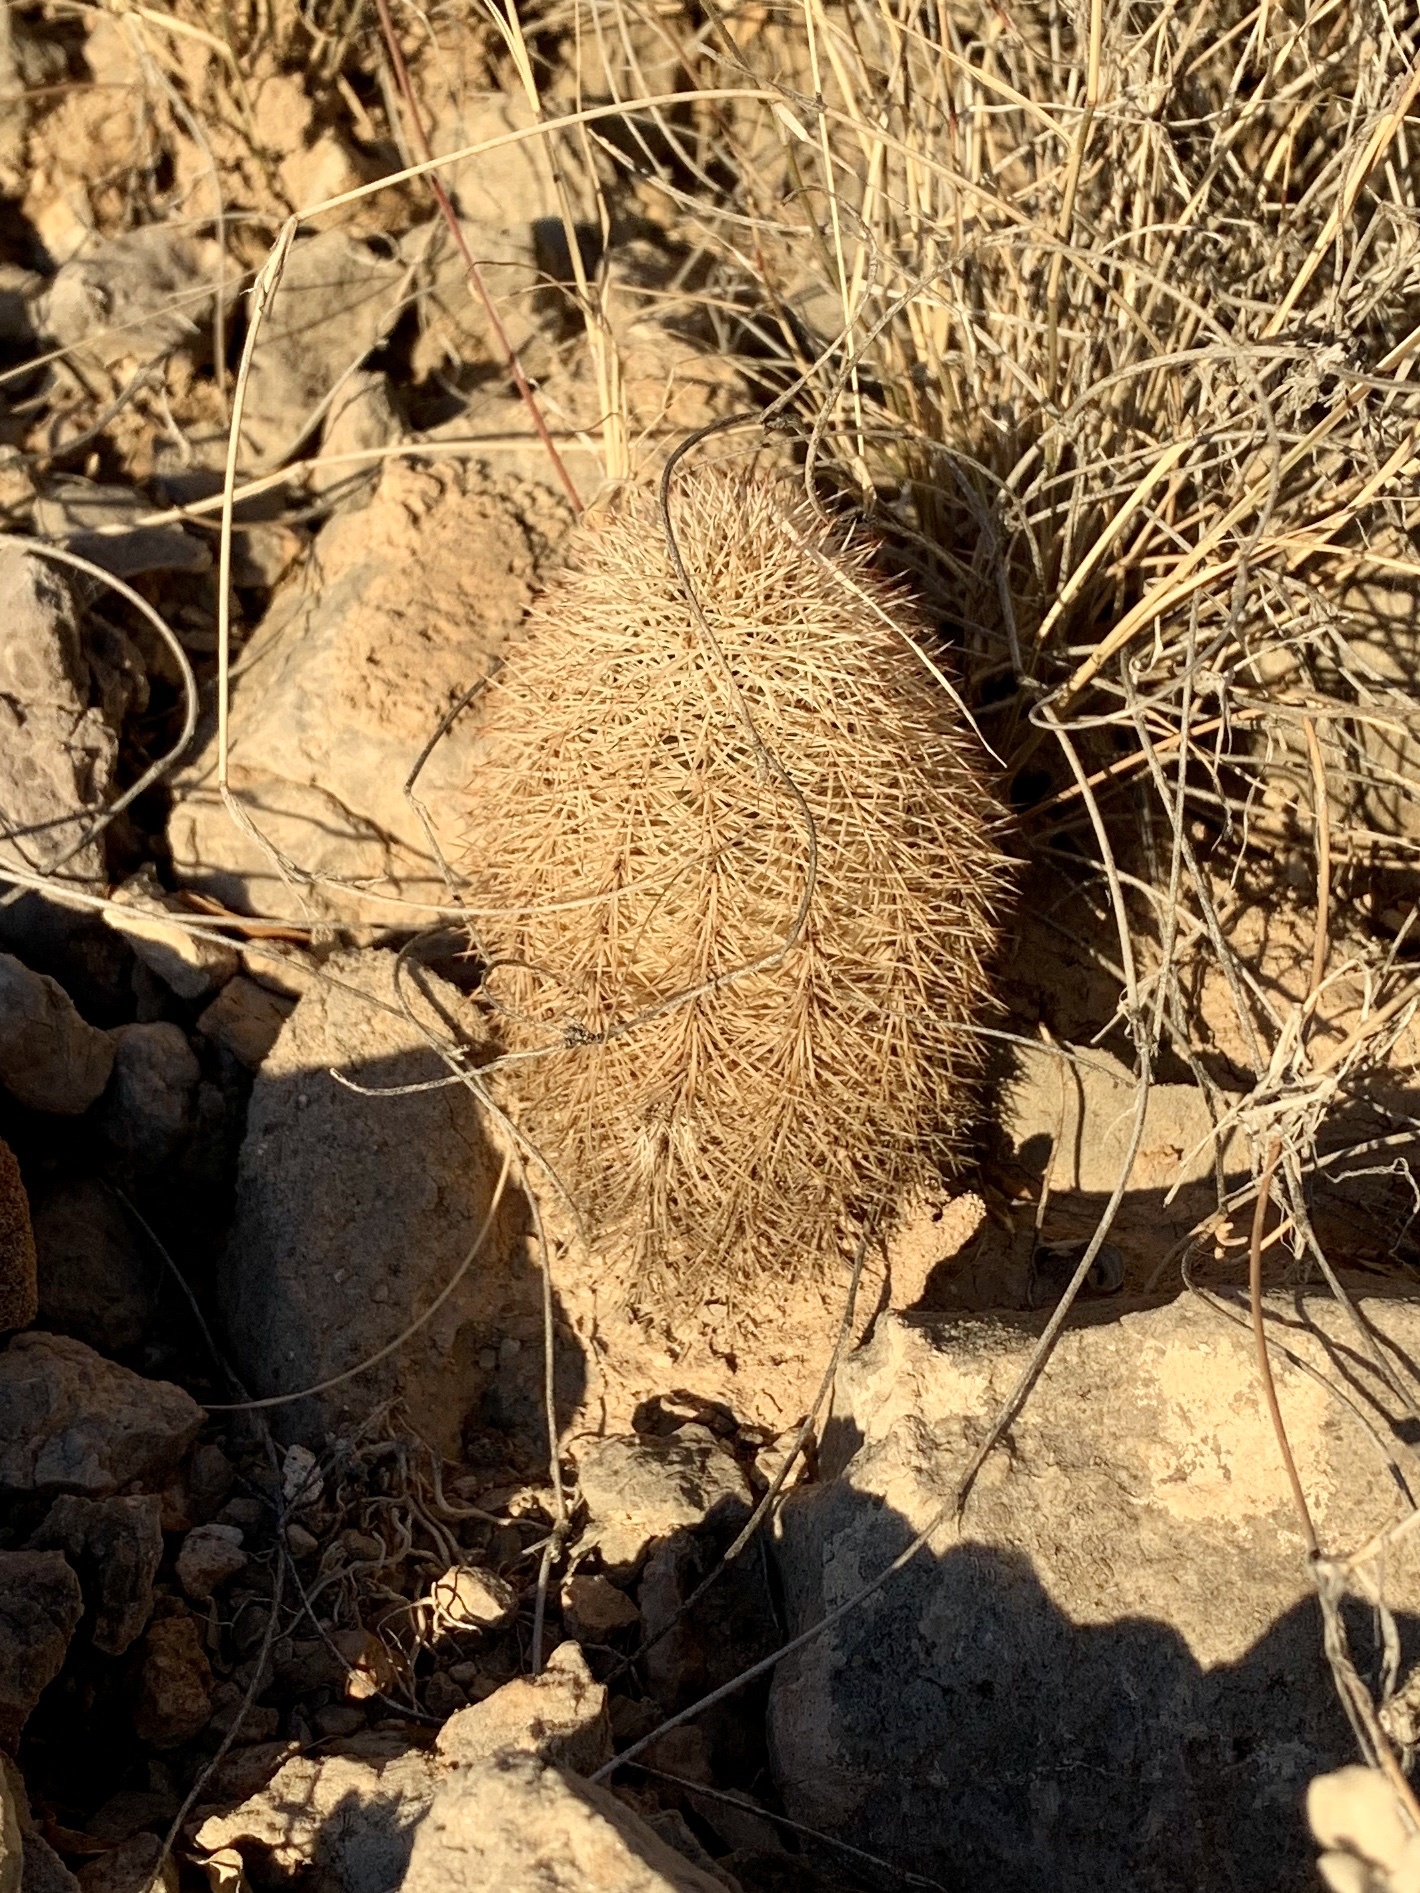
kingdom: Plantae
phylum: Tracheophyta
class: Magnoliopsida
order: Caryophyllales
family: Cactaceae
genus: Echinocereus
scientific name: Echinocereus dasyacanthus
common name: Spiny hedgehog cactus
